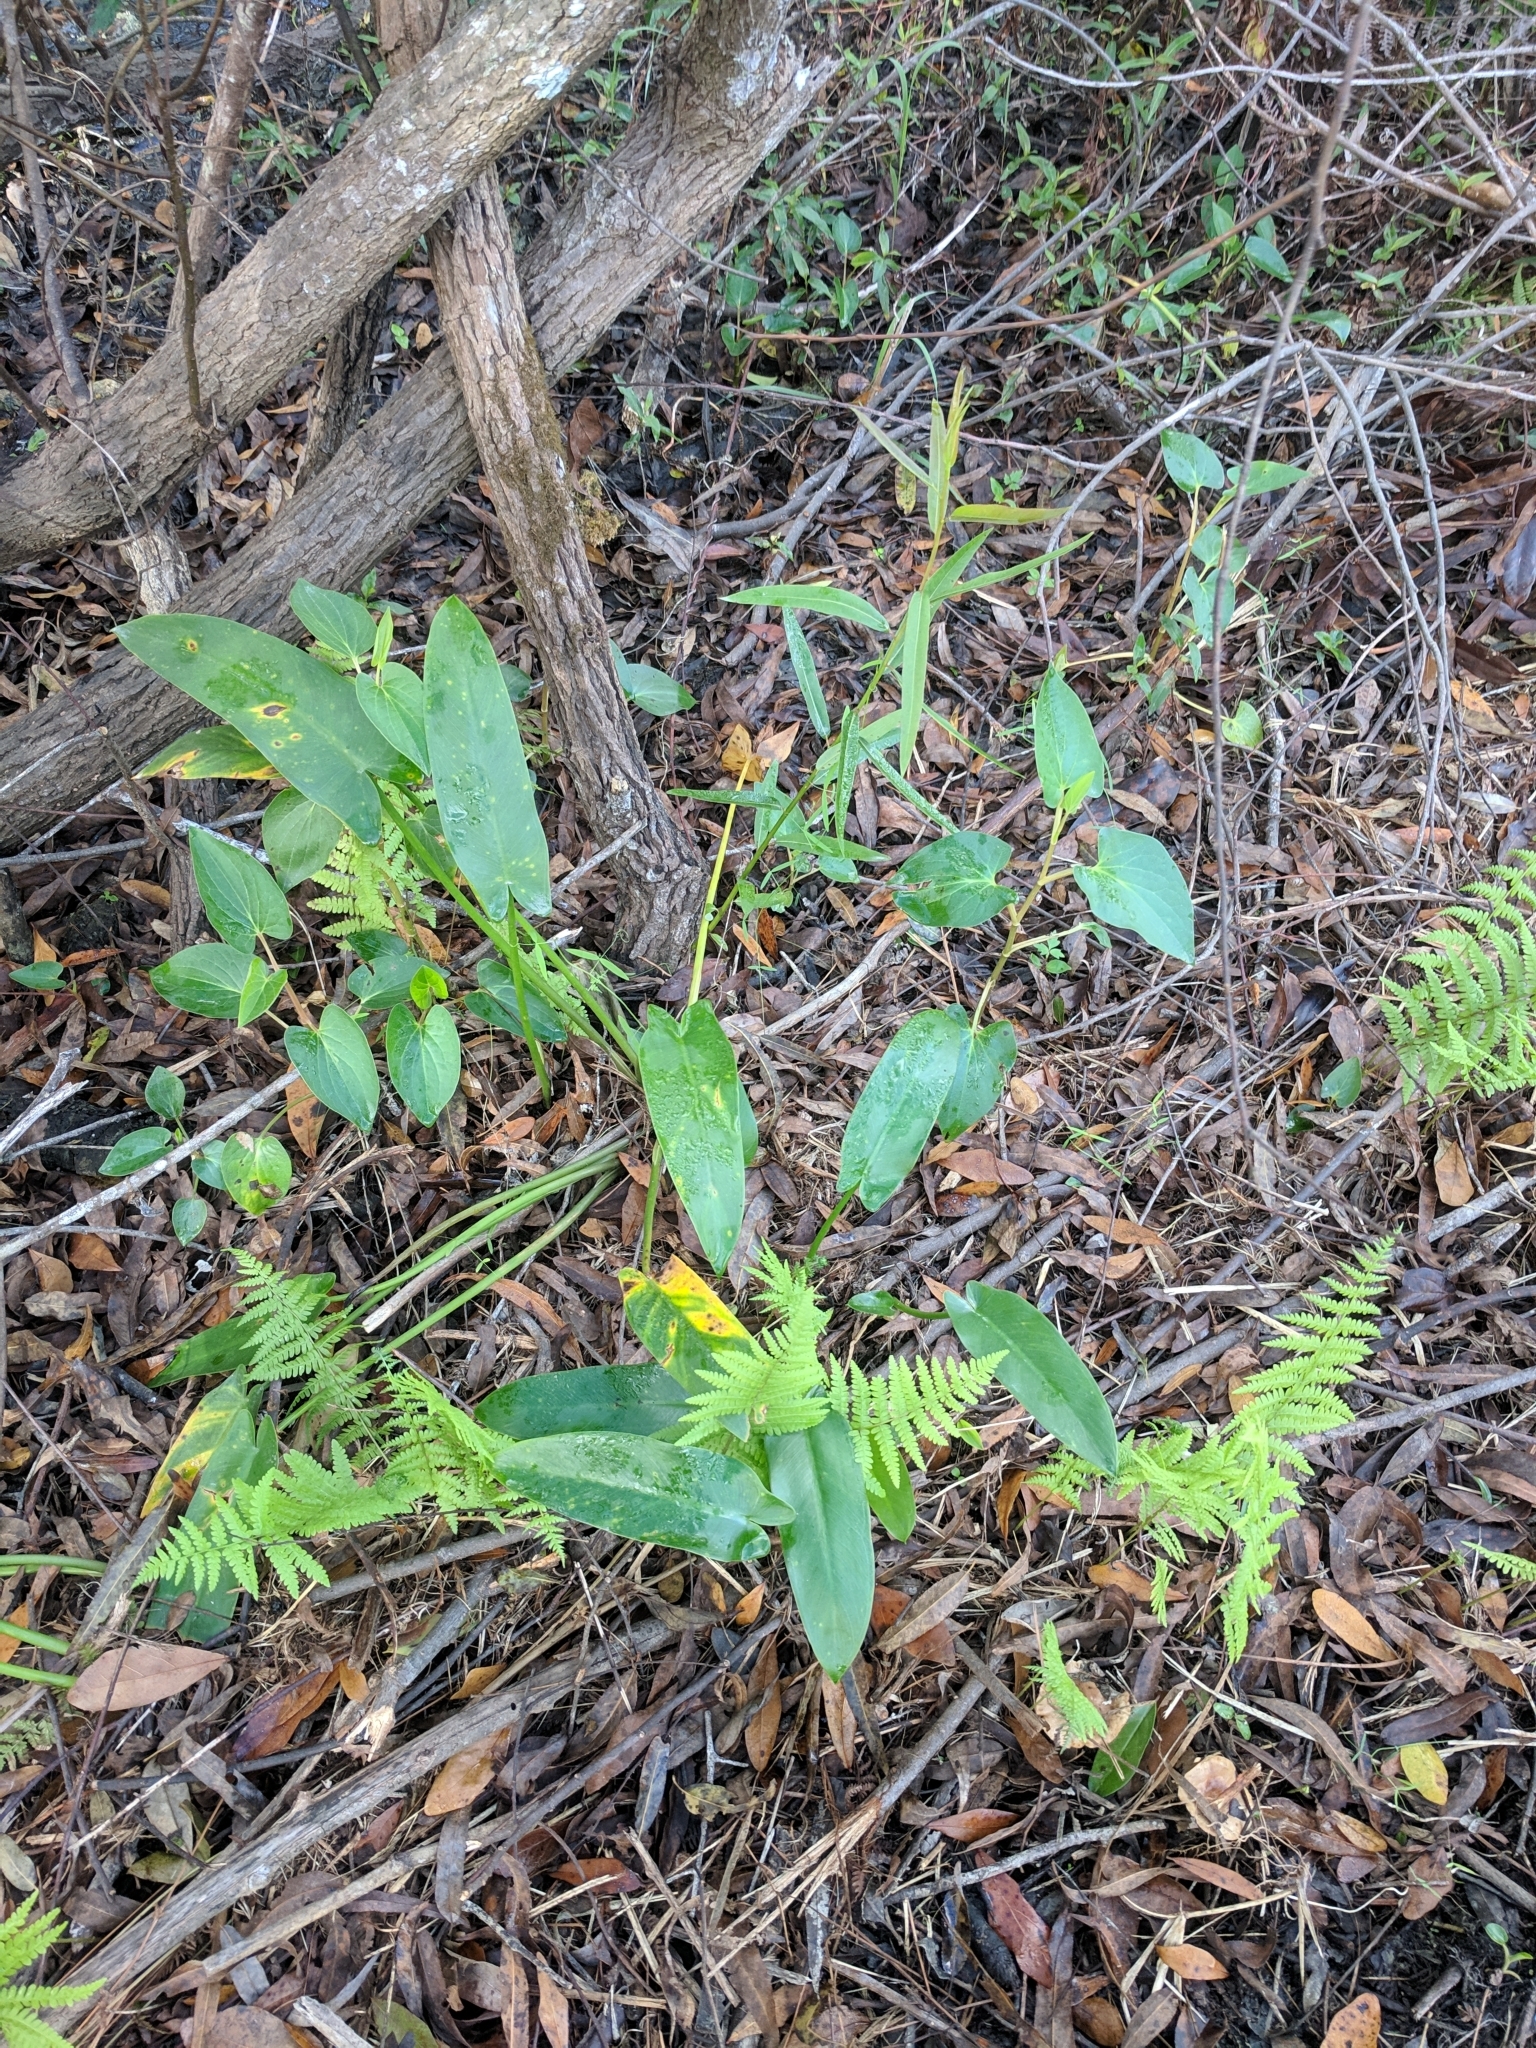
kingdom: Plantae
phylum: Tracheophyta
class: Magnoliopsida
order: Piperales
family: Saururaceae
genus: Saururus
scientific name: Saururus cernuus
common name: Lizard's-tail
